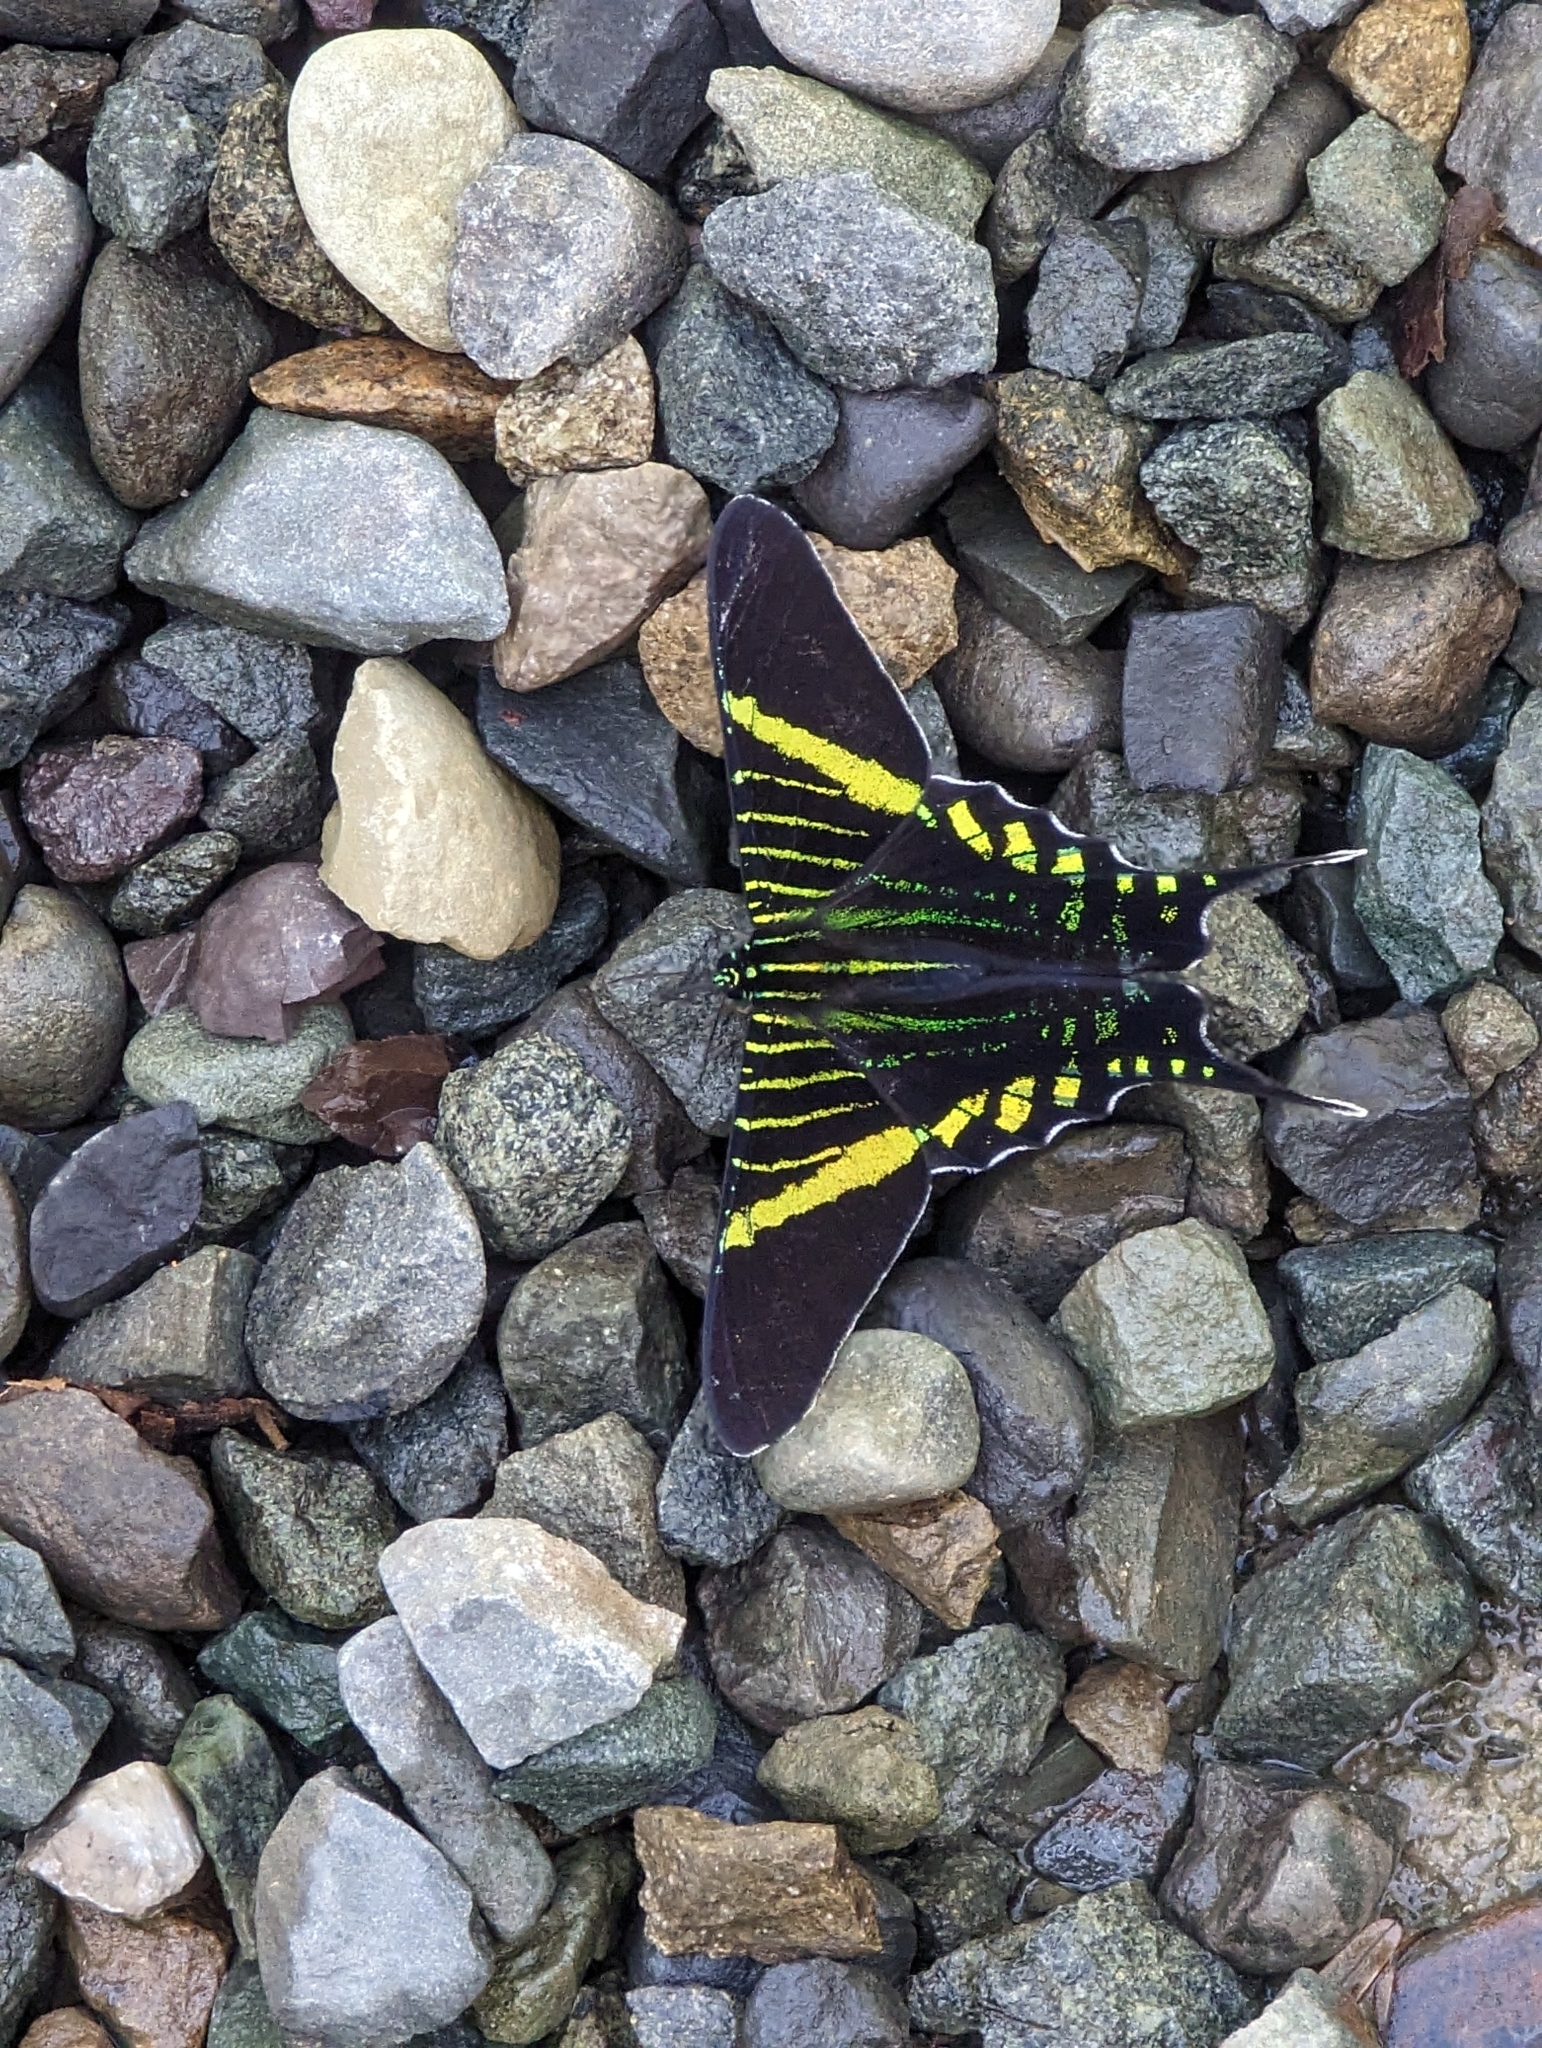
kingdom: Animalia
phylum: Arthropoda
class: Insecta
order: Lepidoptera
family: Uraniidae
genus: Urania
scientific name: Urania fulgens
